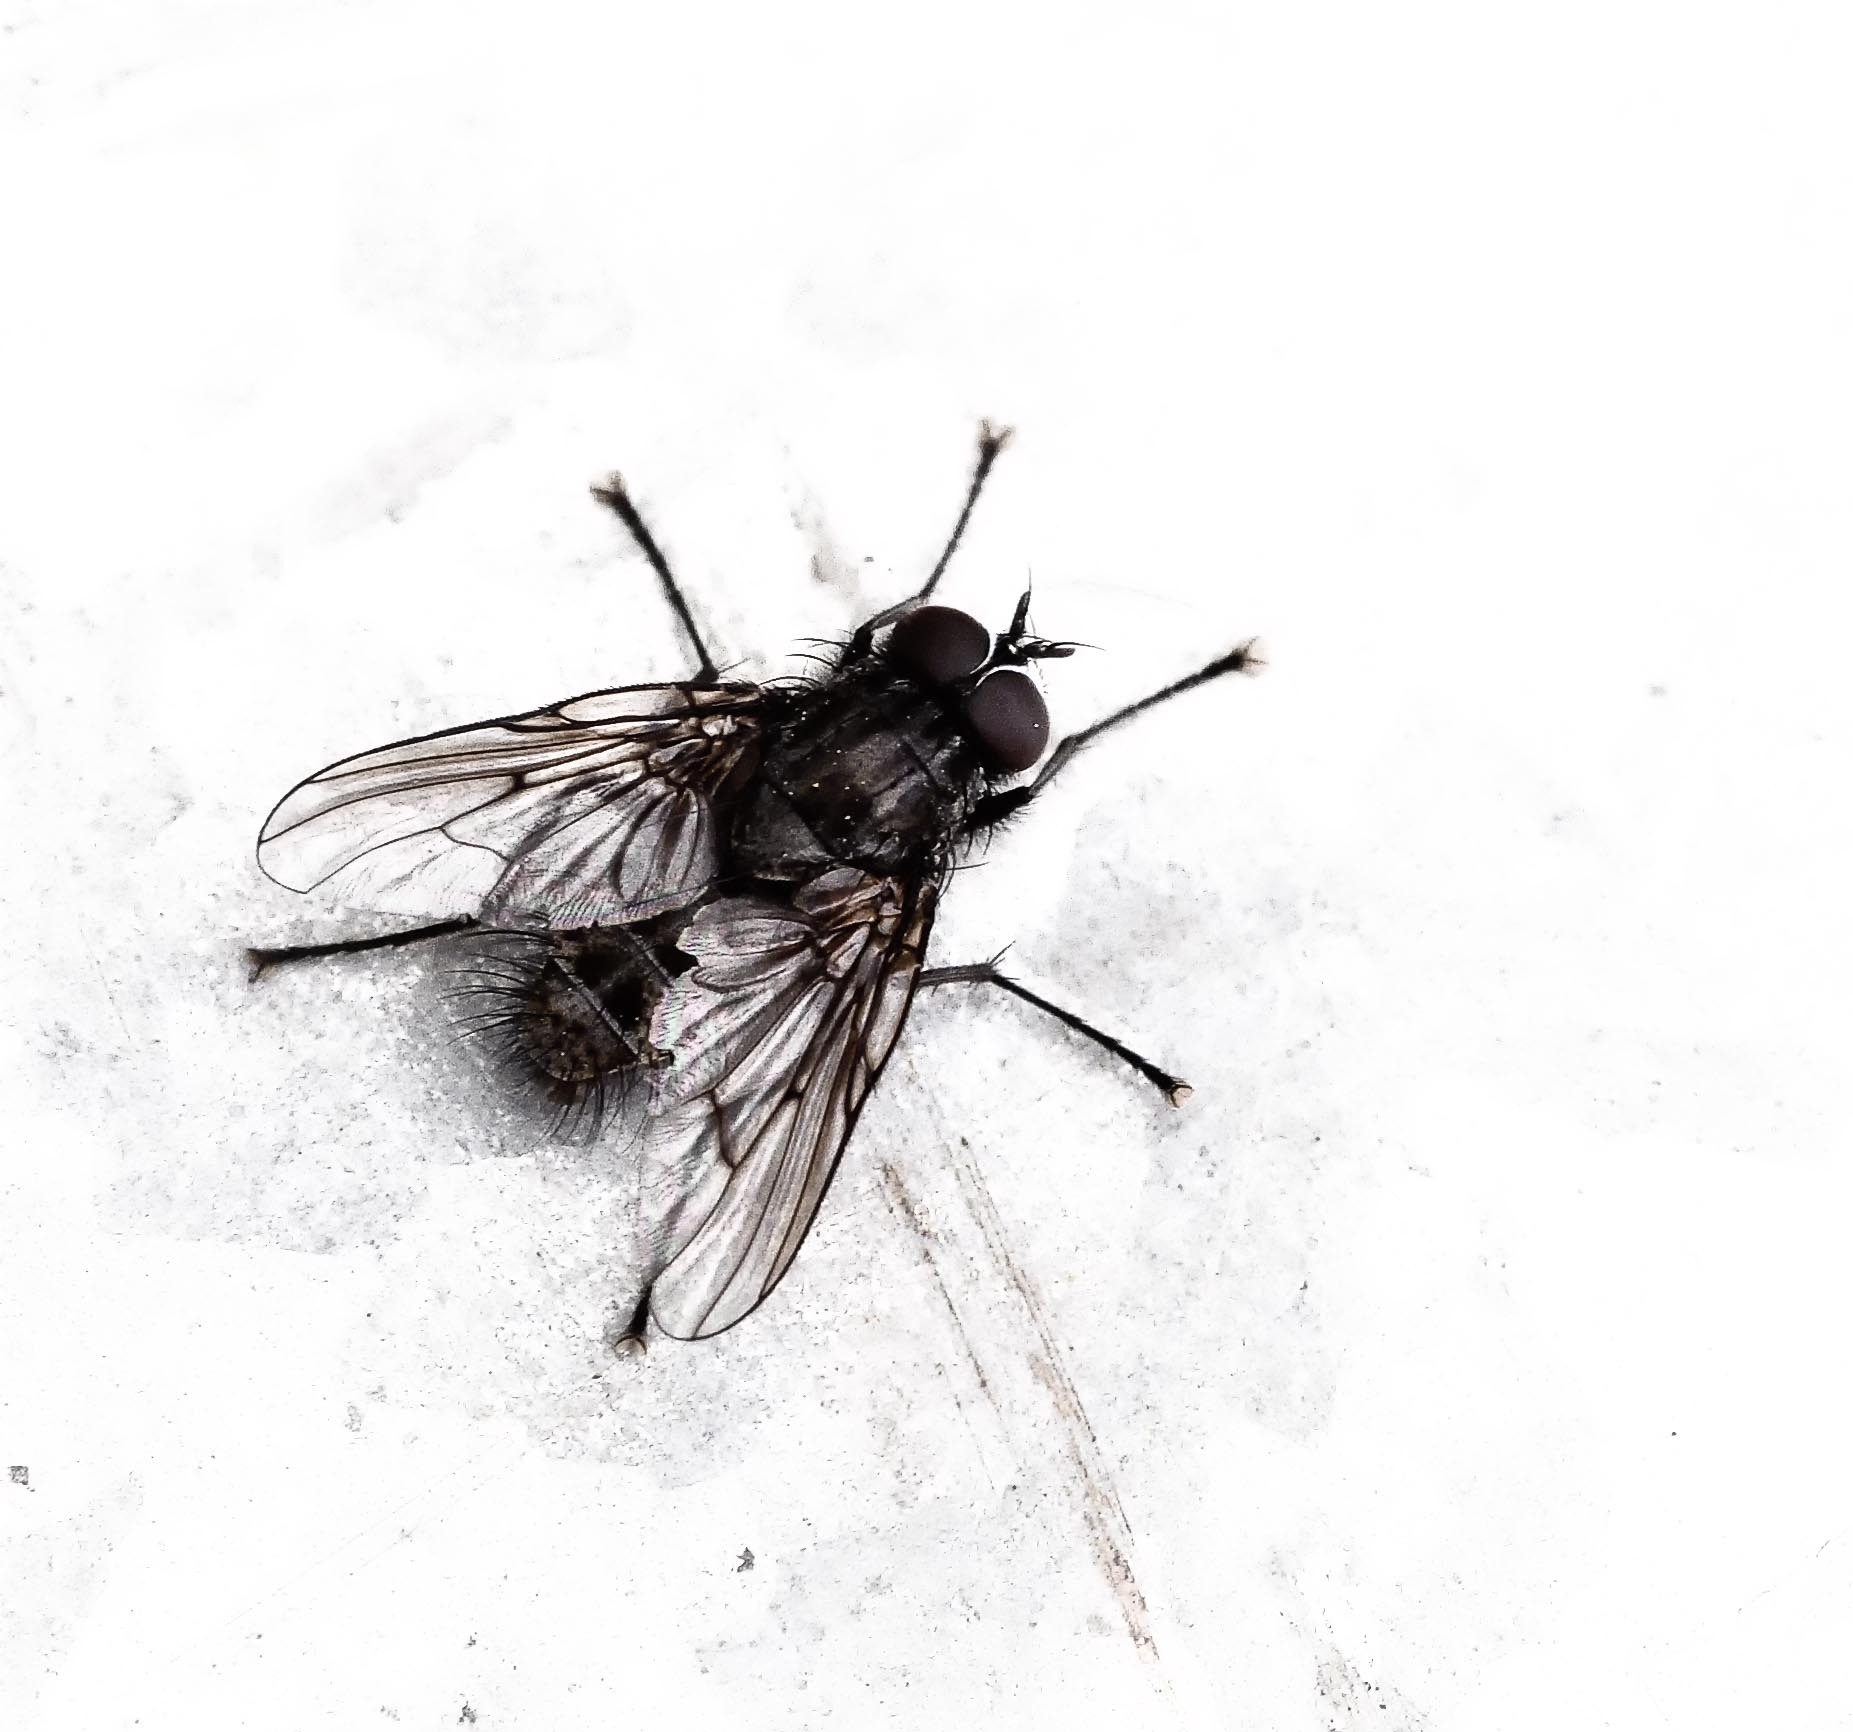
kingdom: Animalia
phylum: Arthropoda
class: Insecta
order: Diptera
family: Muscidae
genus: Helina
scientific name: Helina evecta
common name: Muscid fly
